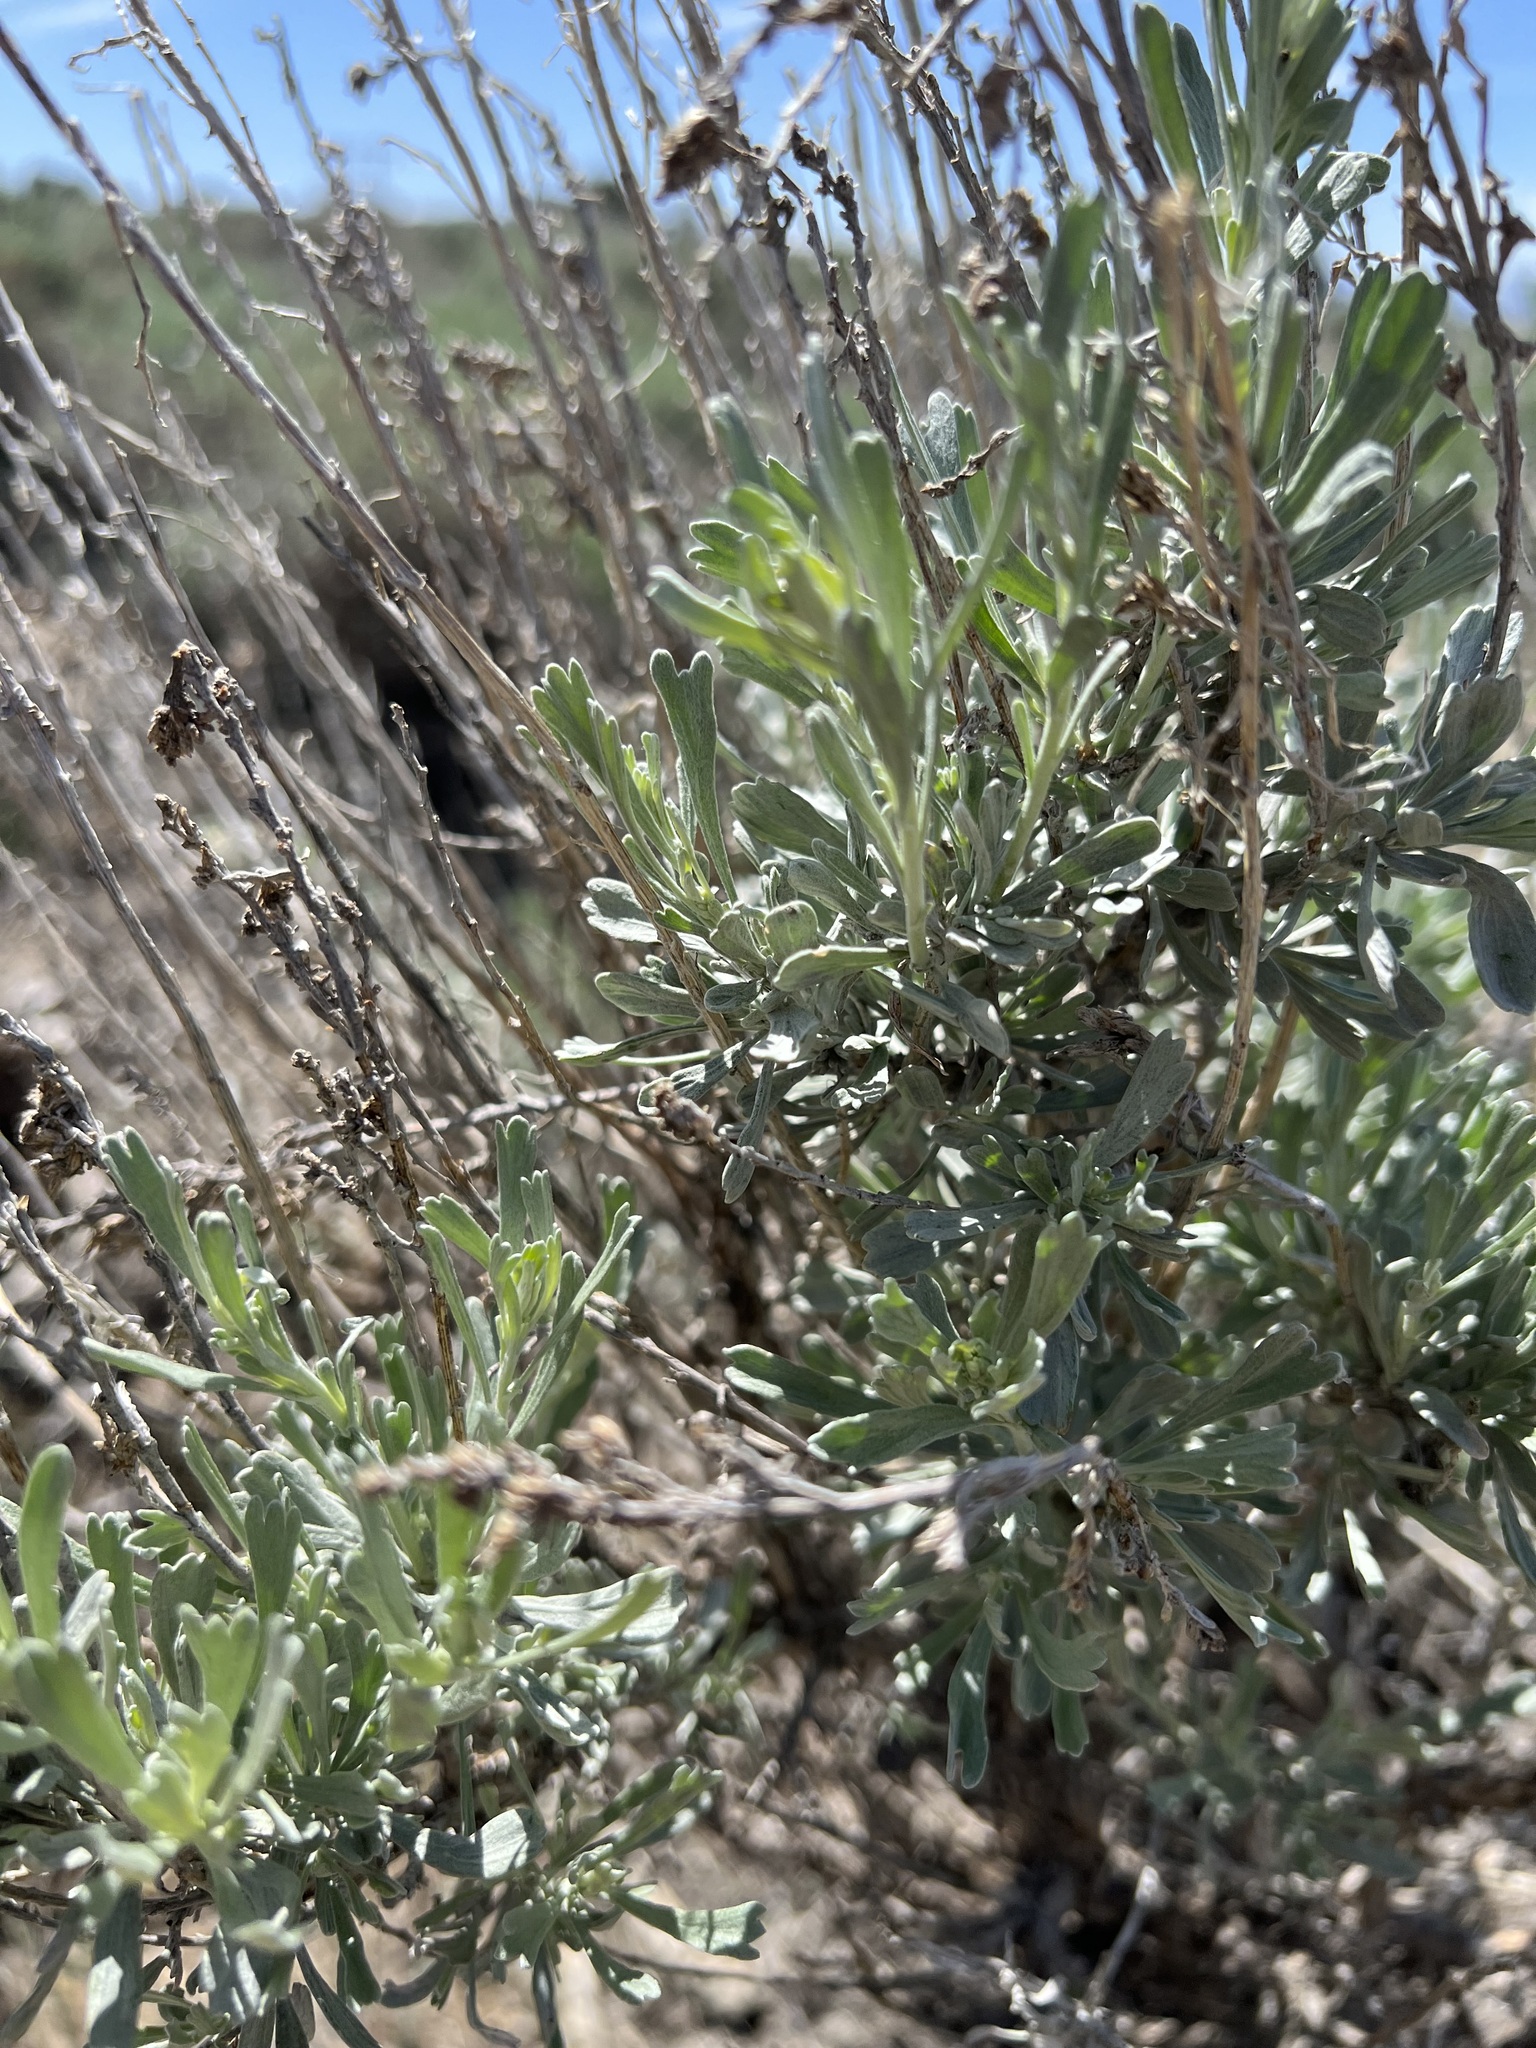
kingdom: Plantae
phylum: Tracheophyta
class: Magnoliopsida
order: Asterales
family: Asteraceae
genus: Artemisia
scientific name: Artemisia tridentata
